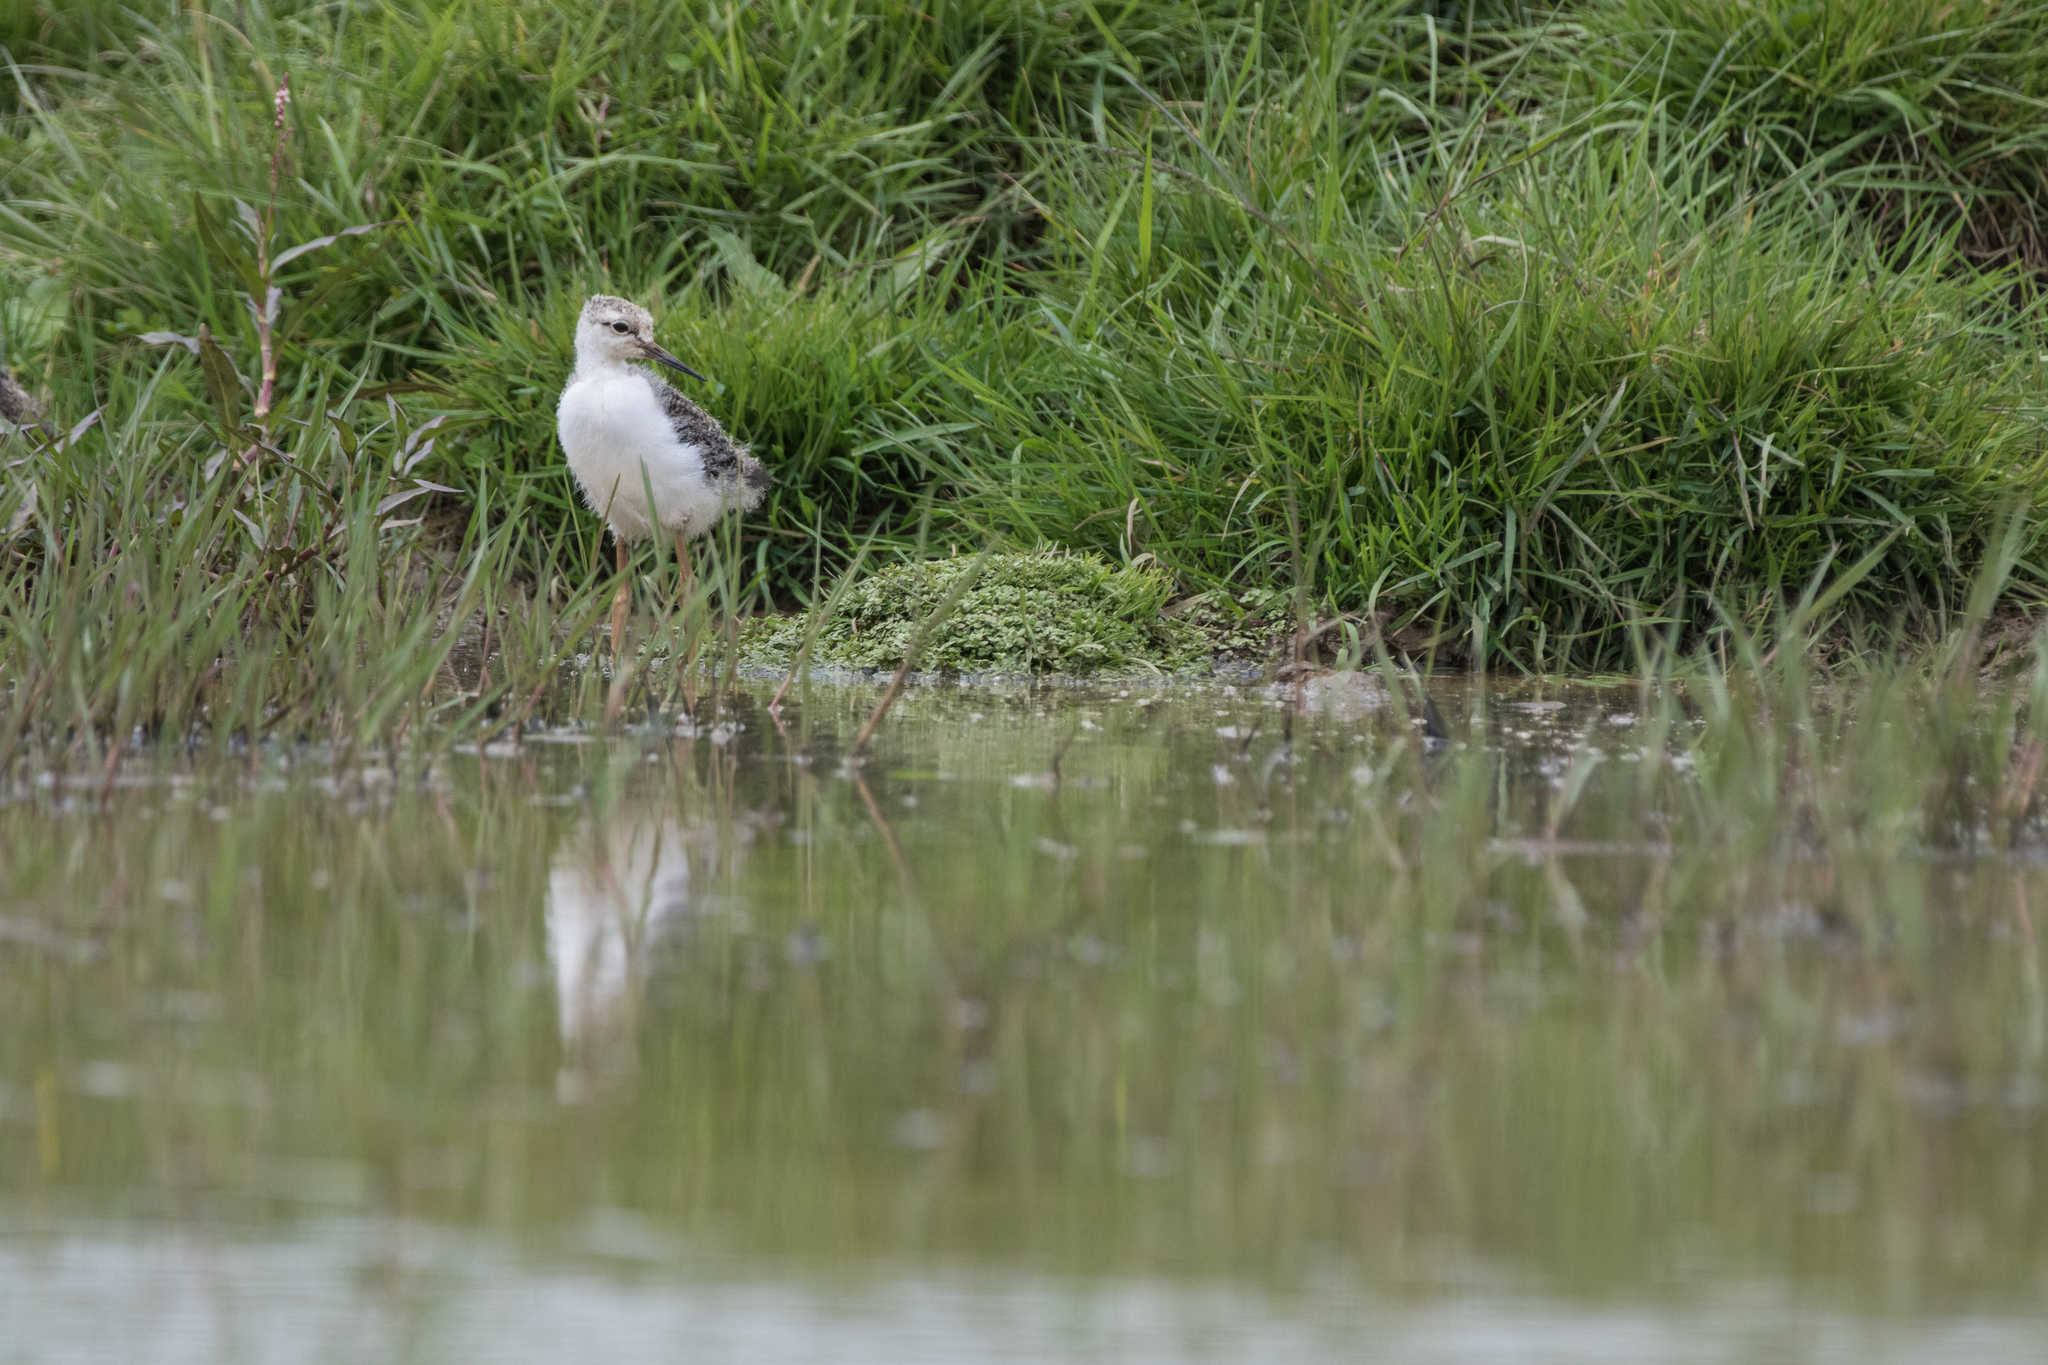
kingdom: Animalia
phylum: Chordata
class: Aves
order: Charadriiformes
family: Recurvirostridae
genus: Himantopus
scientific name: Himantopus leucocephalus
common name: White-headed stilt
